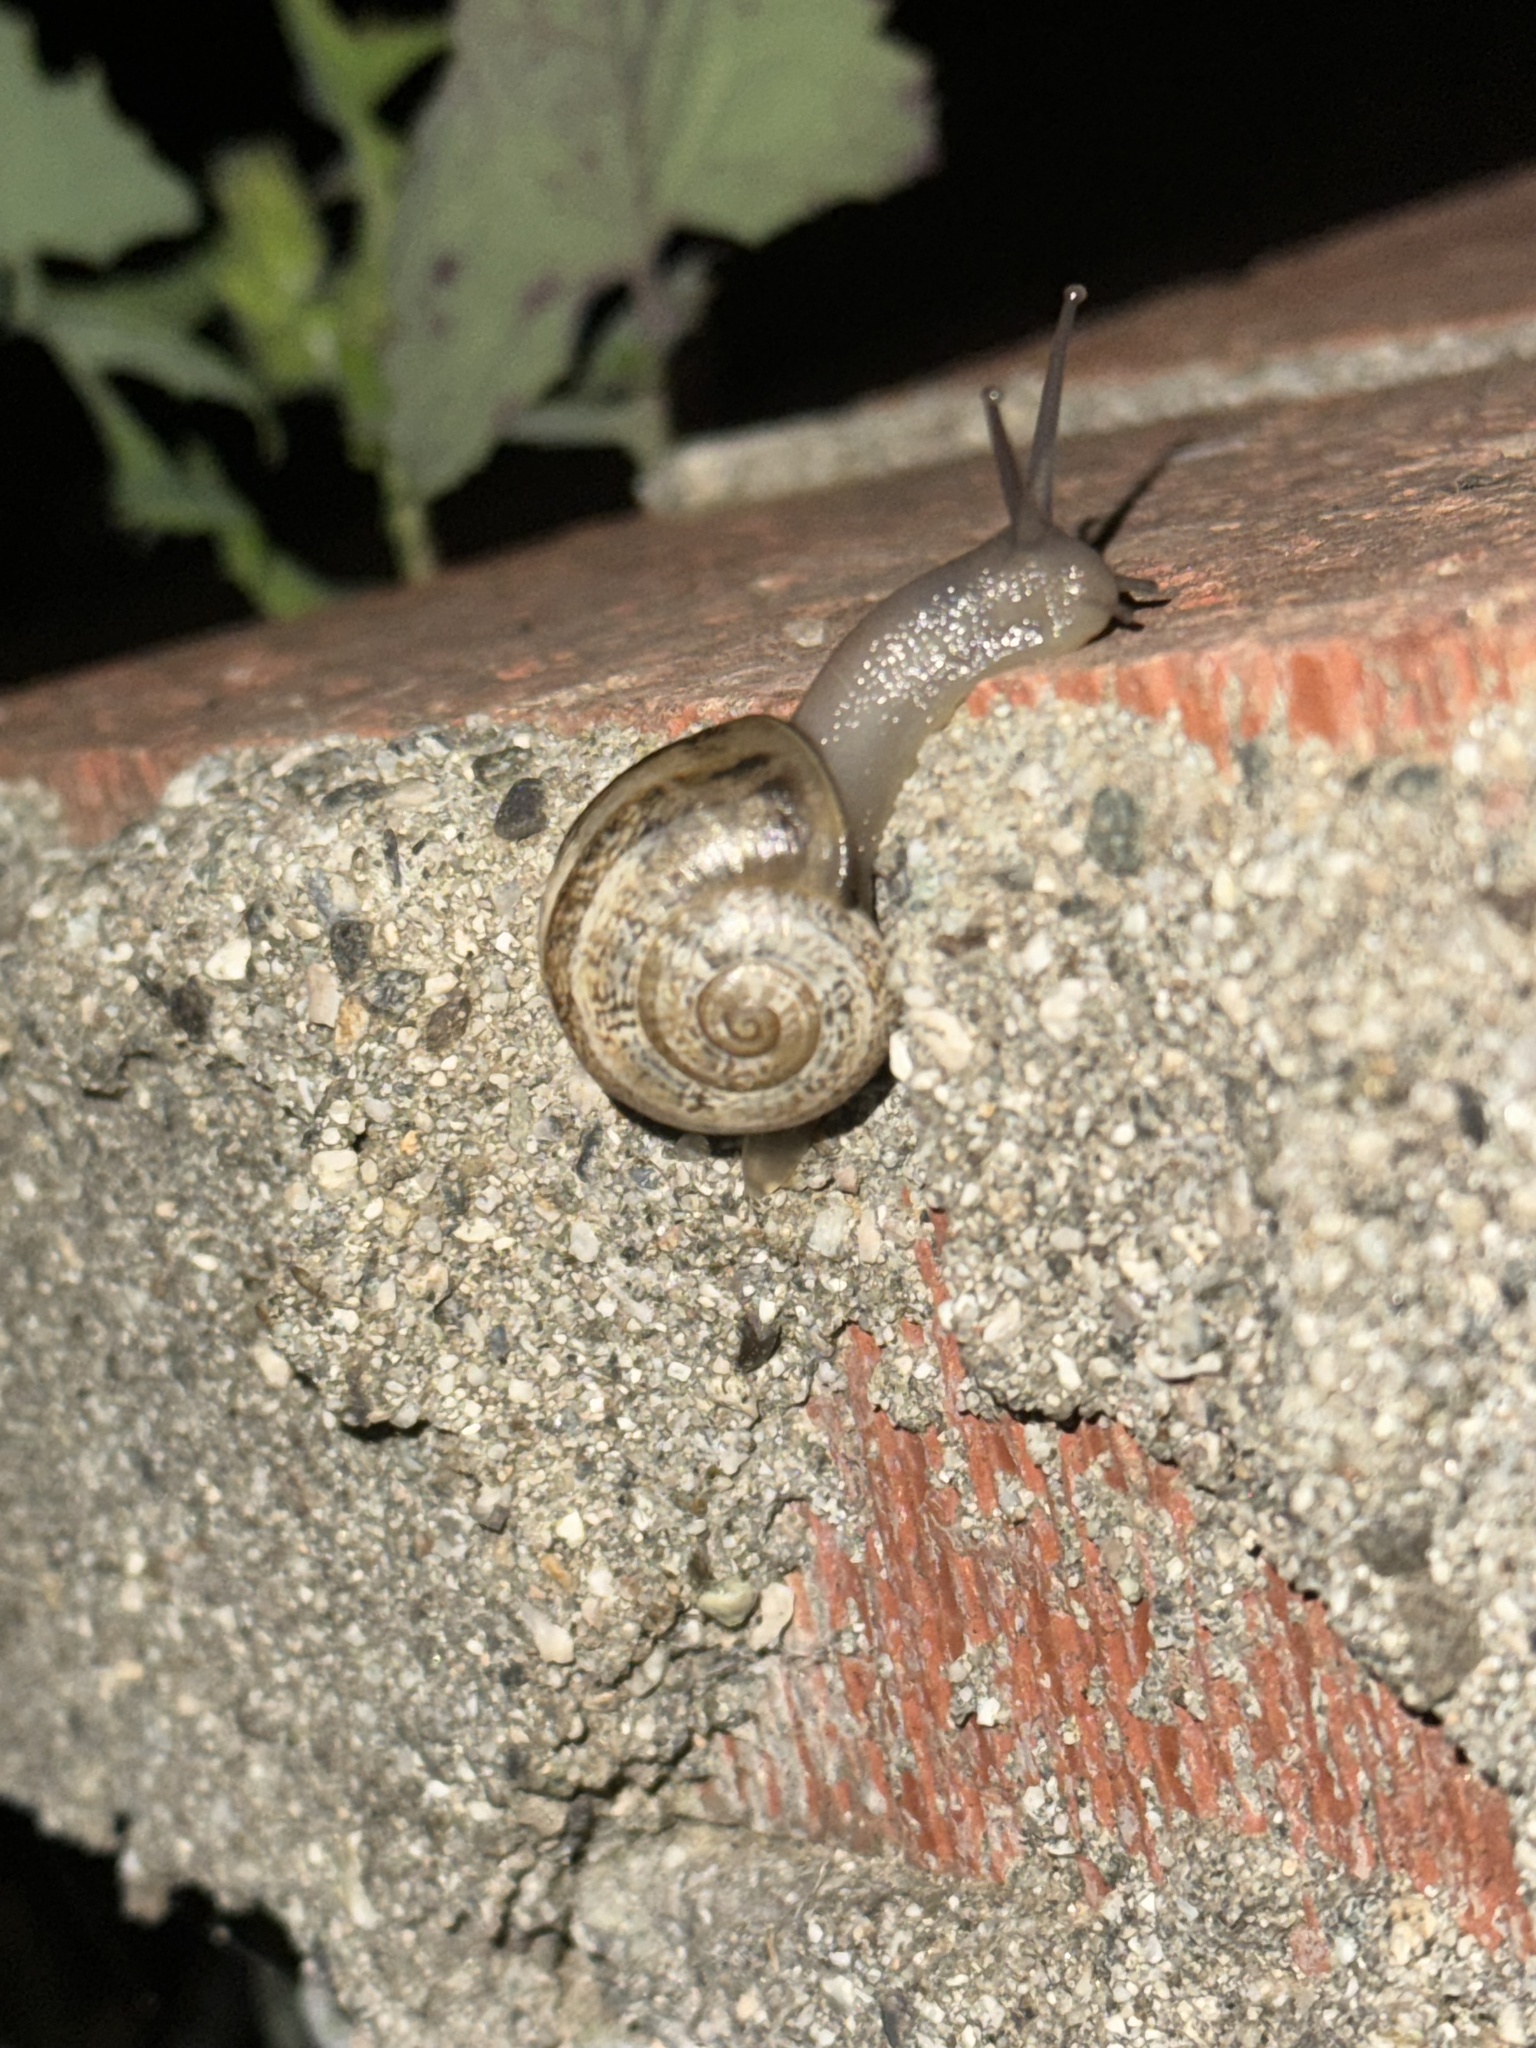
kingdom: Animalia
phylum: Mollusca
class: Gastropoda
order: Stylommatophora
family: Helicidae
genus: Otala
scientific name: Otala lactea
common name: Milk snail
